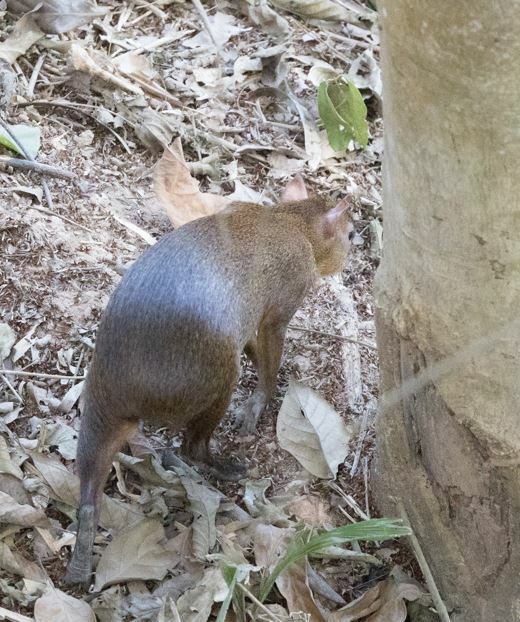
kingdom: Animalia
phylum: Chordata
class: Mammalia
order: Rodentia
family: Dasyproctidae
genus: Dasyprocta
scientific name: Dasyprocta variegata
